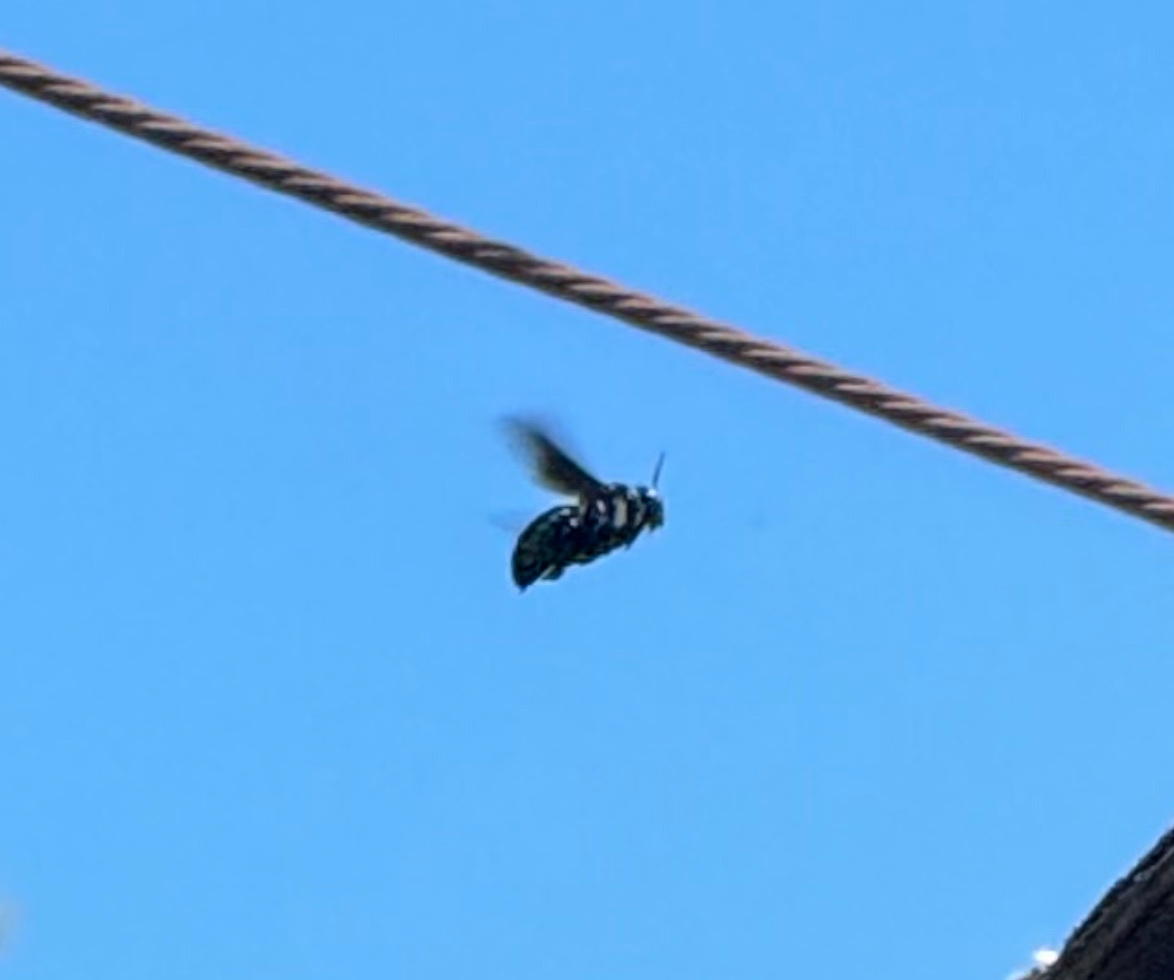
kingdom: Animalia
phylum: Arthropoda
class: Insecta
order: Hymenoptera
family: Apidae
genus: Xylocopa
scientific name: Xylocopa californica
